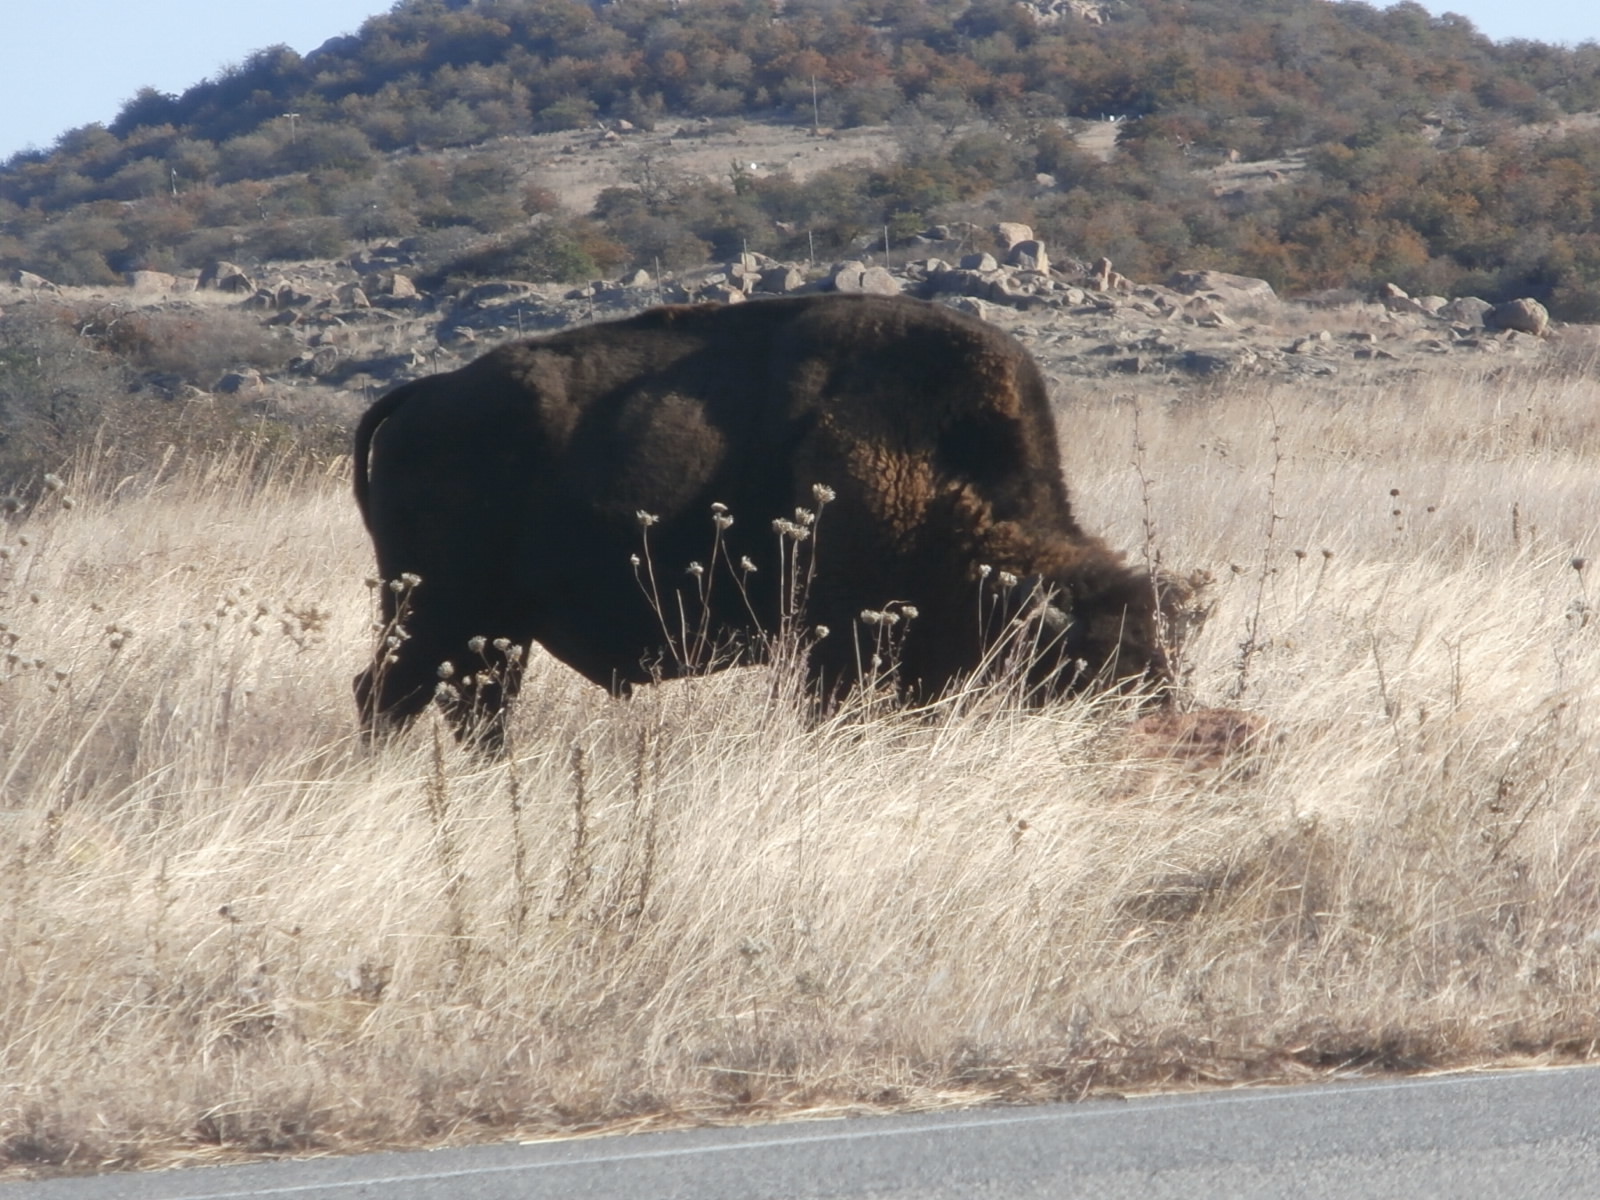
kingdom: Animalia
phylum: Chordata
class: Mammalia
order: Artiodactyla
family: Bovidae
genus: Bison
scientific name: Bison bison
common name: American bison
